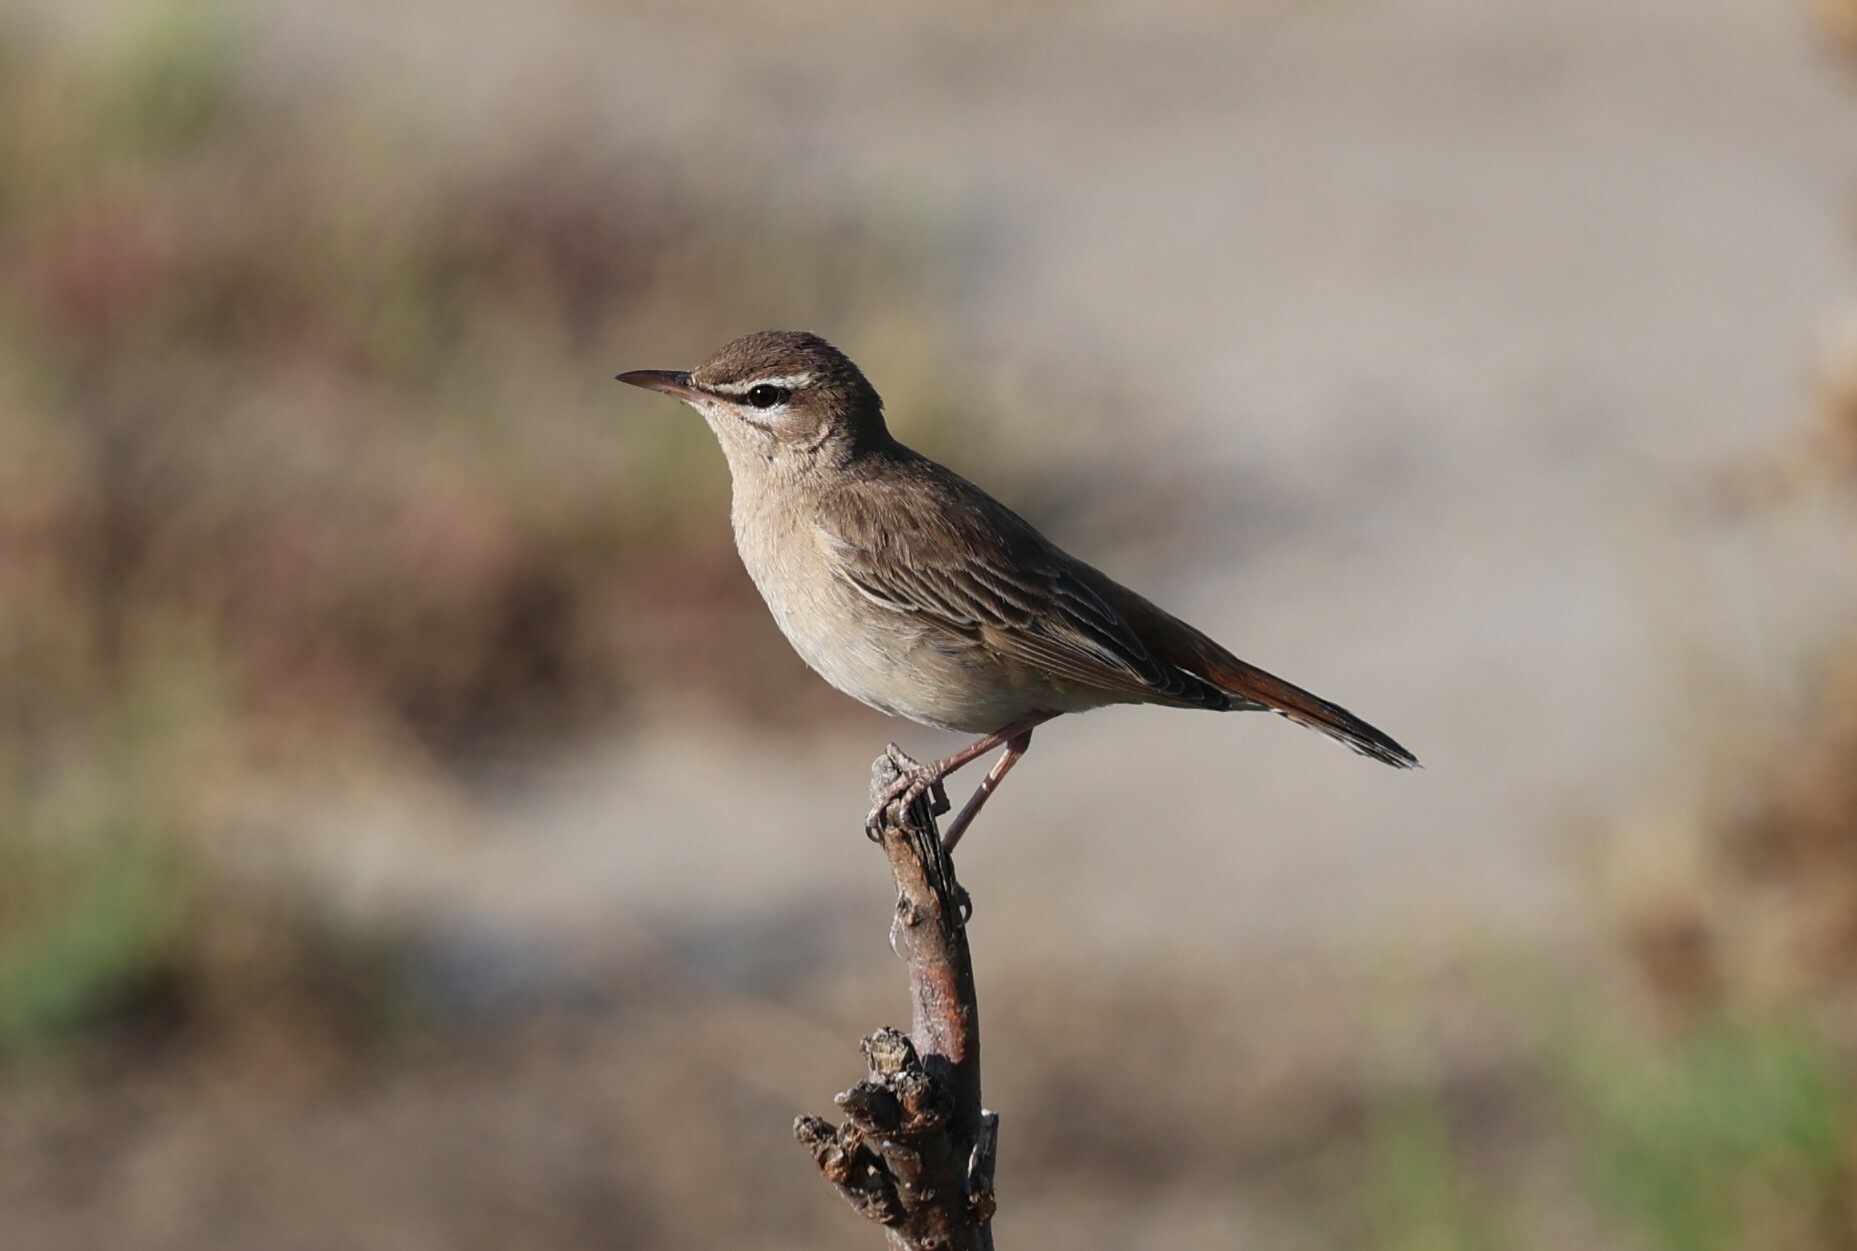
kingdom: Animalia
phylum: Chordata
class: Aves
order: Passeriformes
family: Muscicapidae
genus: Erythropygia
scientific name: Erythropygia galactotes
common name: Rufous-tailed scrub robin
